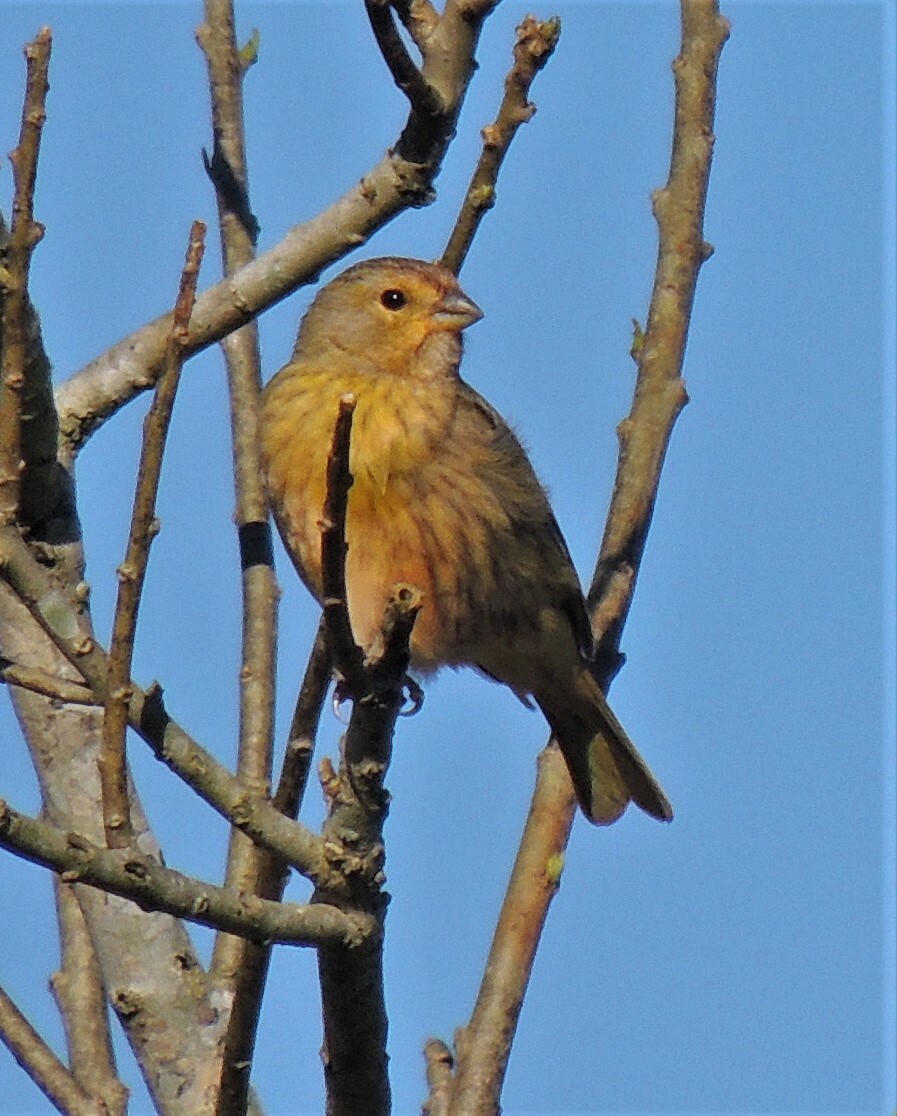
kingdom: Animalia
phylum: Chordata
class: Aves
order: Passeriformes
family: Thraupidae
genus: Sicalis
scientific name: Sicalis flaveola
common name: Saffron finch
